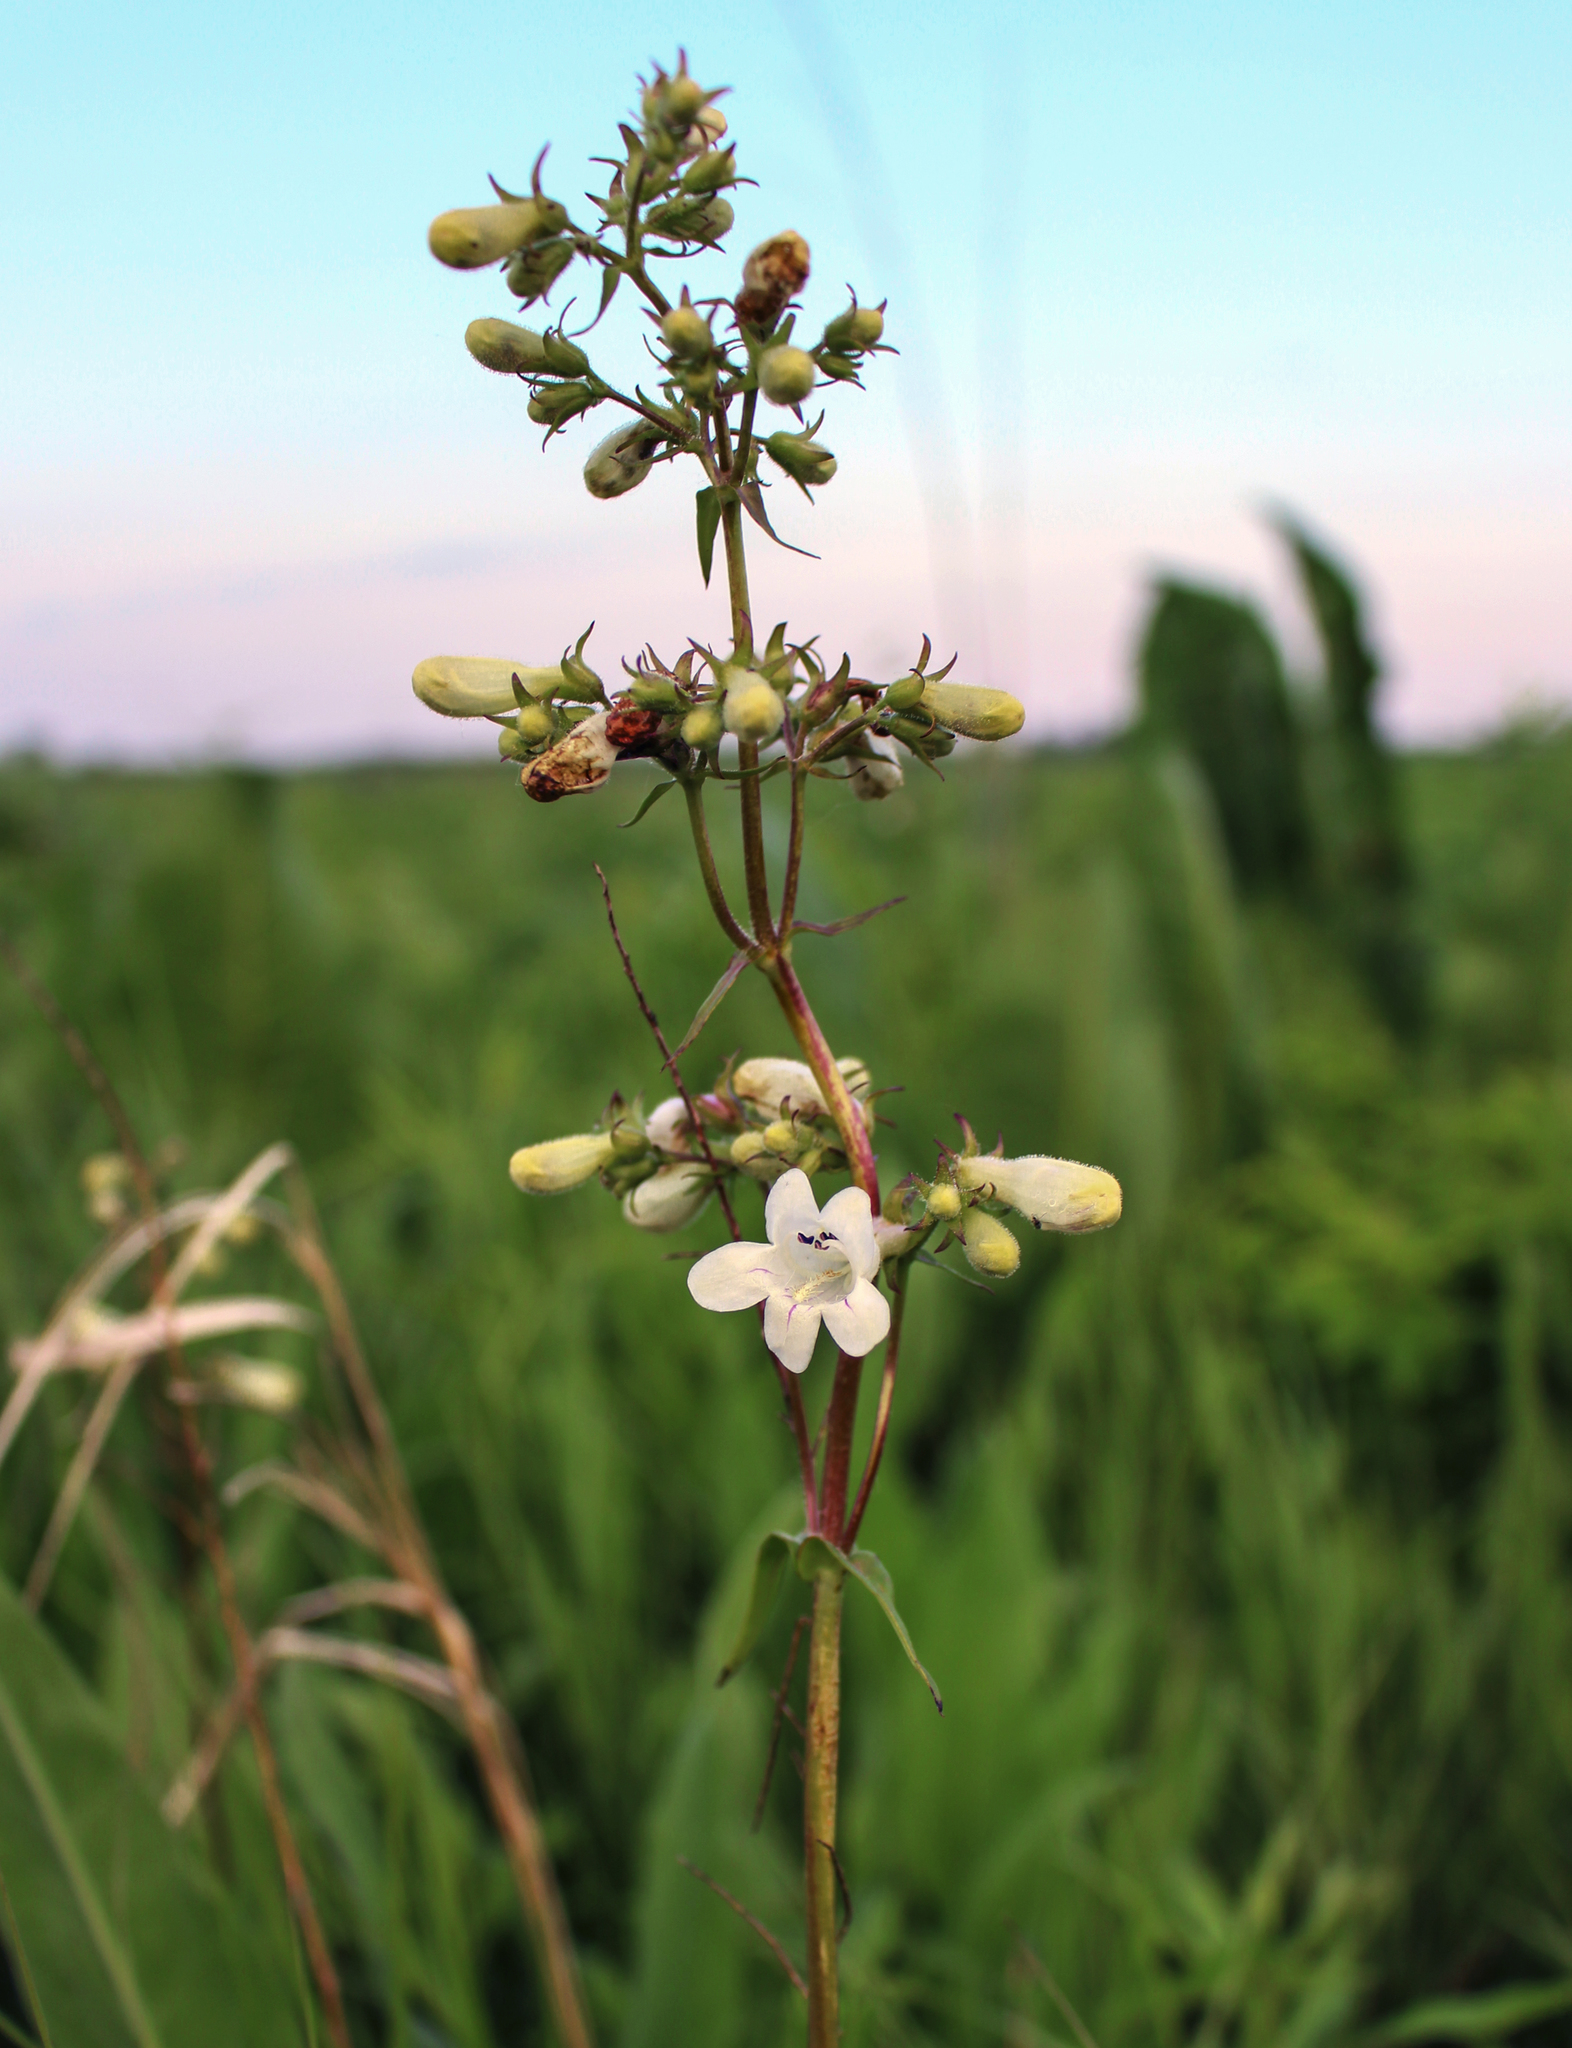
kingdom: Plantae
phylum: Tracheophyta
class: Magnoliopsida
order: Lamiales
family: Plantaginaceae
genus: Penstemon
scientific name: Penstemon digitalis
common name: Foxglove beardtongue
